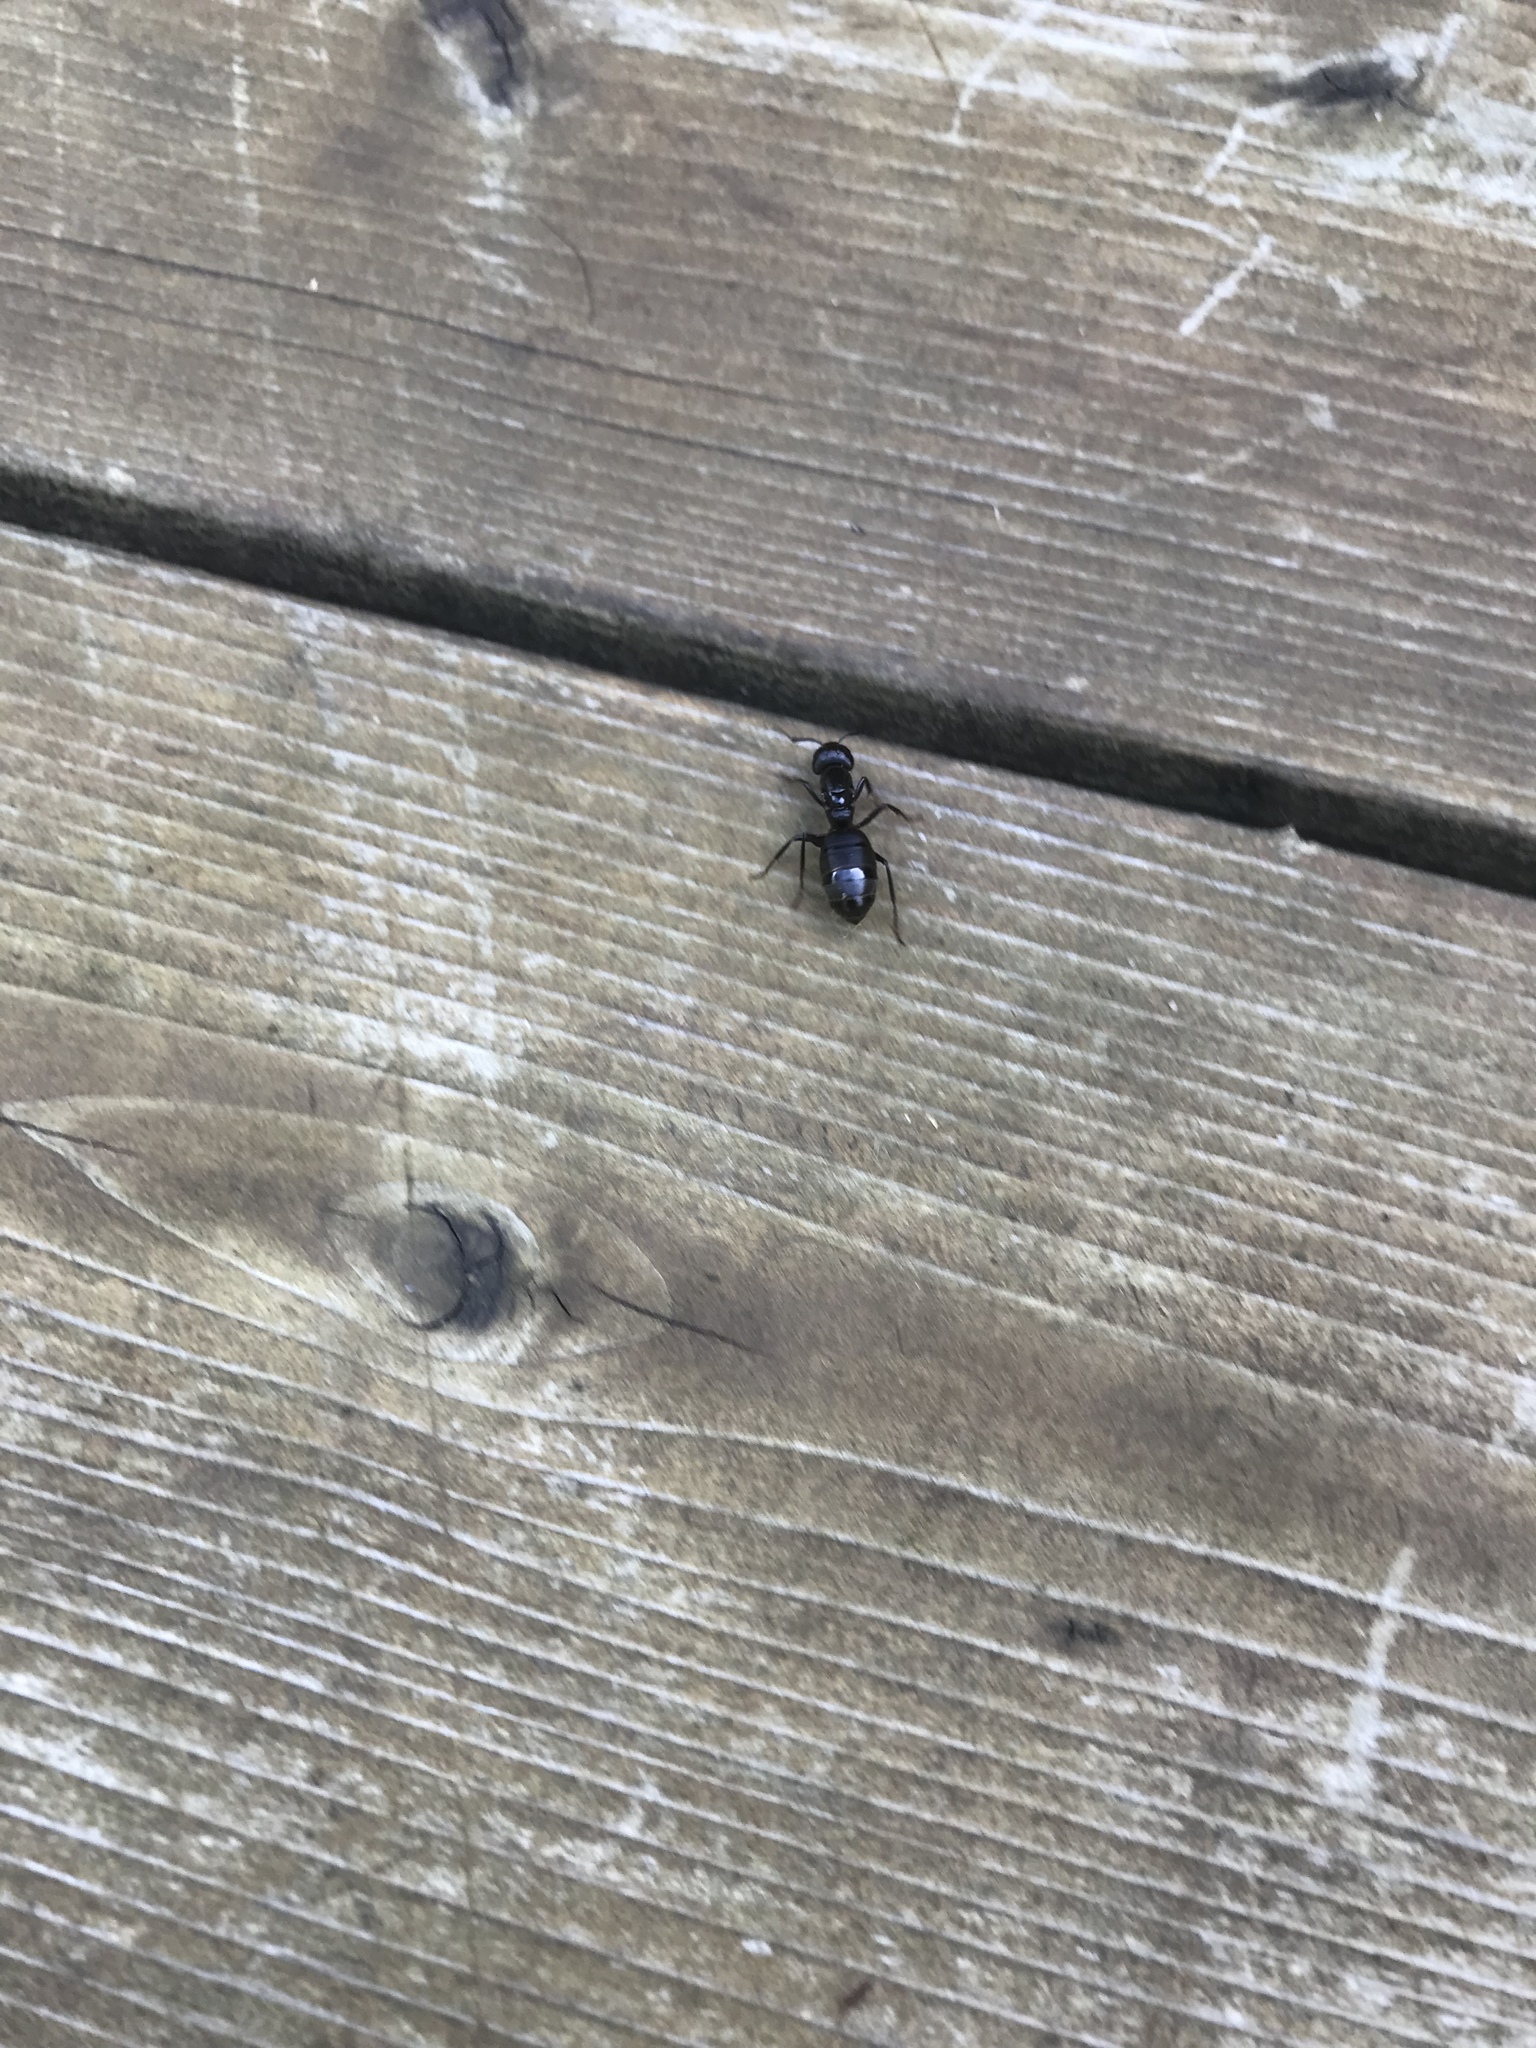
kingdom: Animalia
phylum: Arthropoda
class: Insecta
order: Hymenoptera
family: Formicidae
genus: Camponotus
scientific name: Camponotus pennsylvanicus
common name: Black carpenter ant
